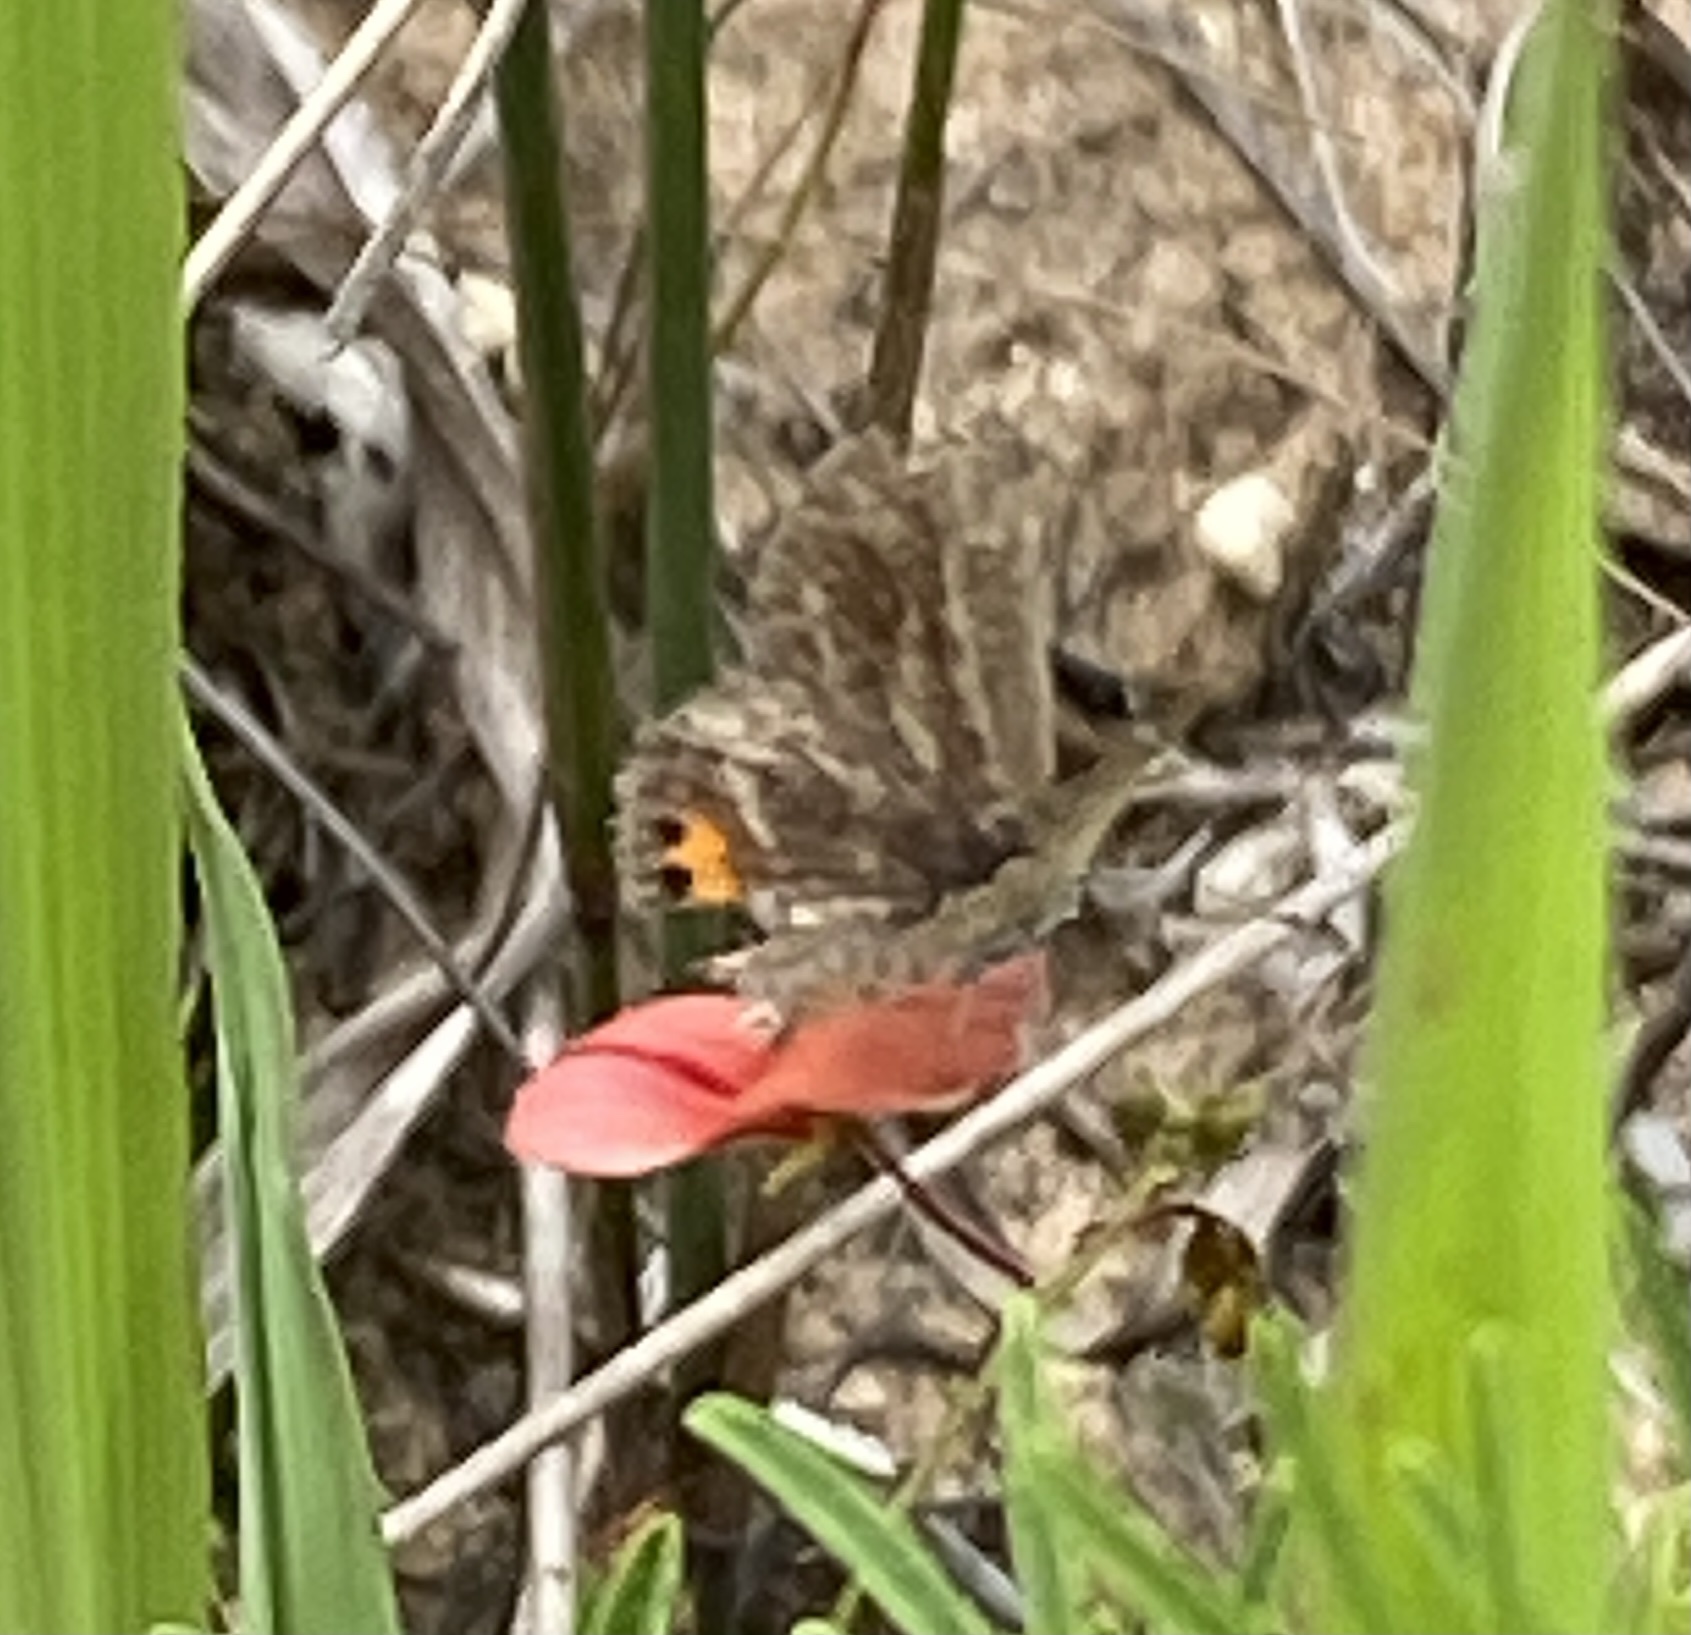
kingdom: Animalia
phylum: Arthropoda
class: Insecta
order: Lepidoptera
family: Lycaenidae
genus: Freyeria
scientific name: Freyeria trochylus
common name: Grass jewel
